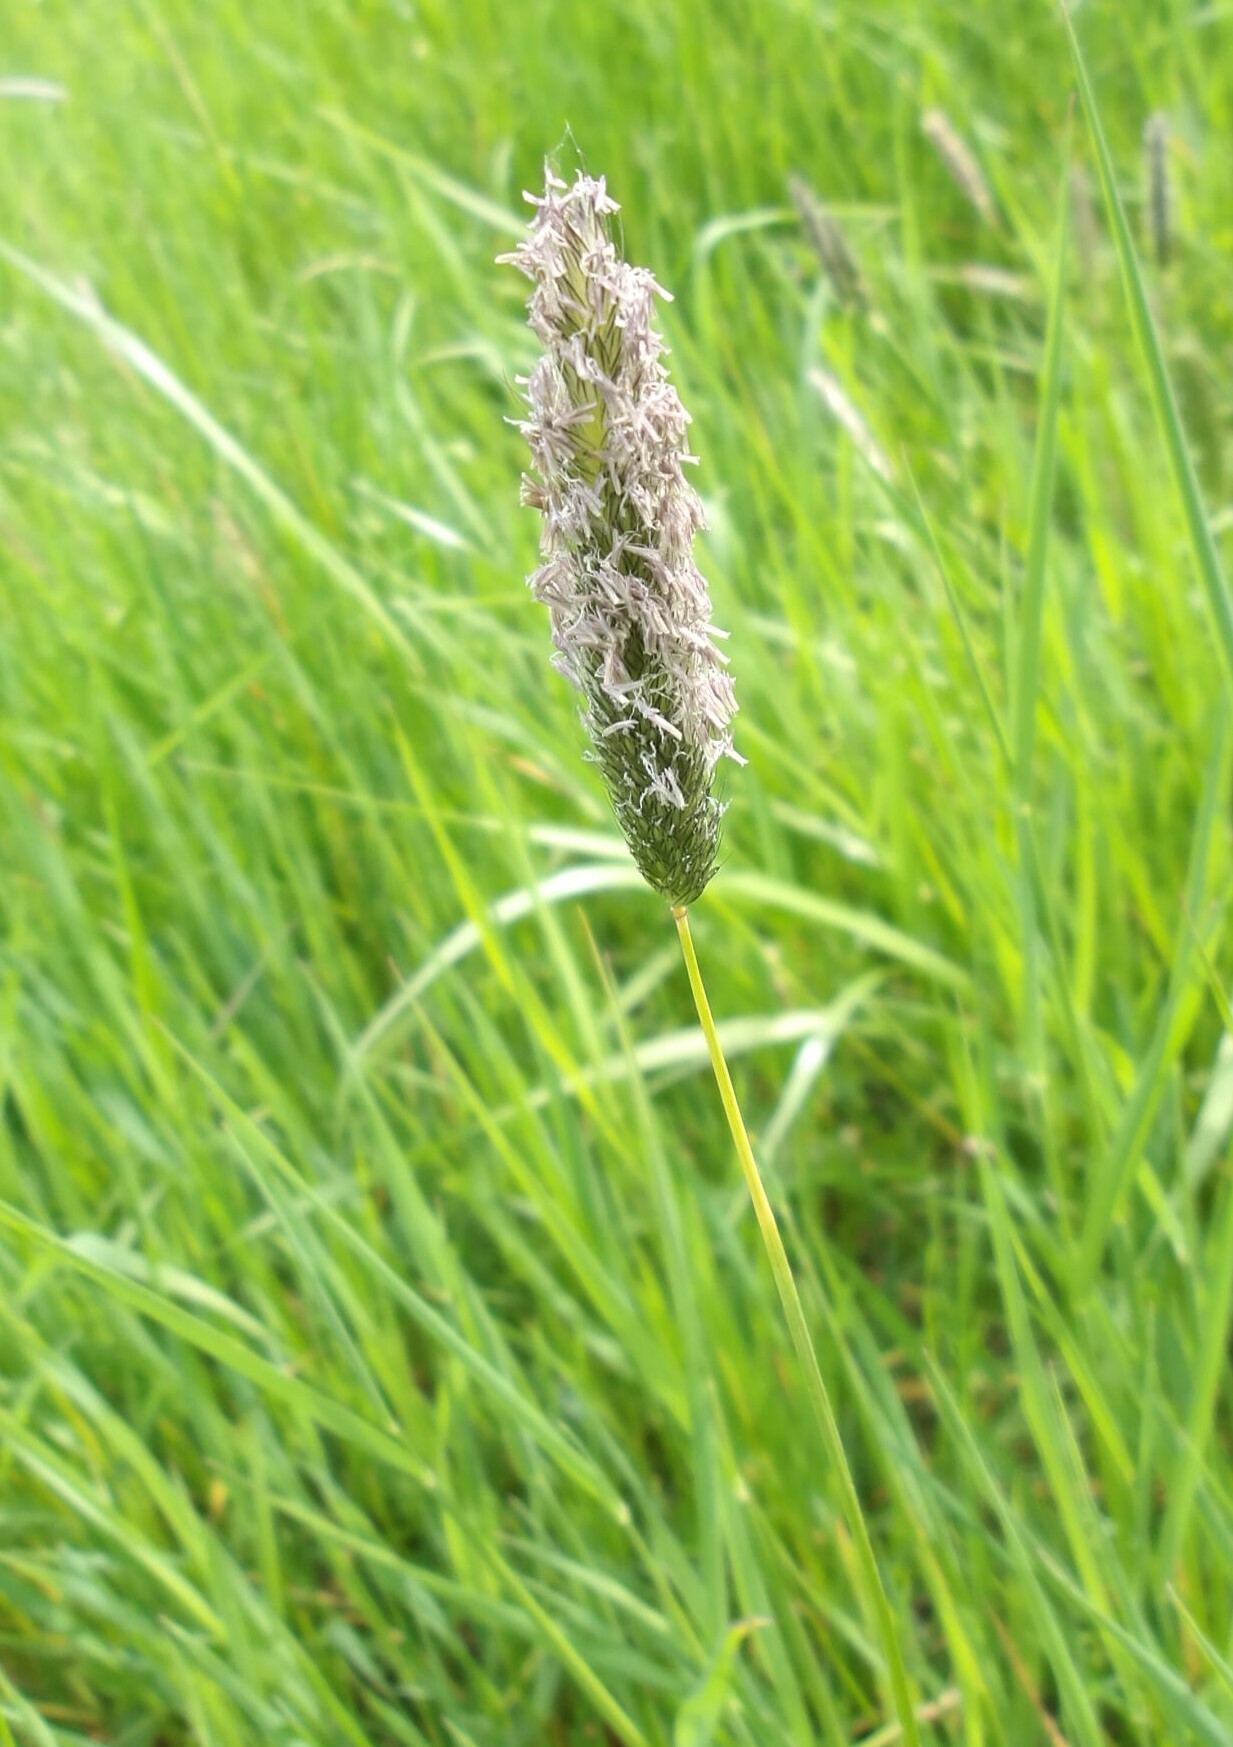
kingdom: Plantae
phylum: Tracheophyta
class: Liliopsida
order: Poales
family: Poaceae
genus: Alopecurus
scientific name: Alopecurus pratensis
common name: Meadow foxtail
